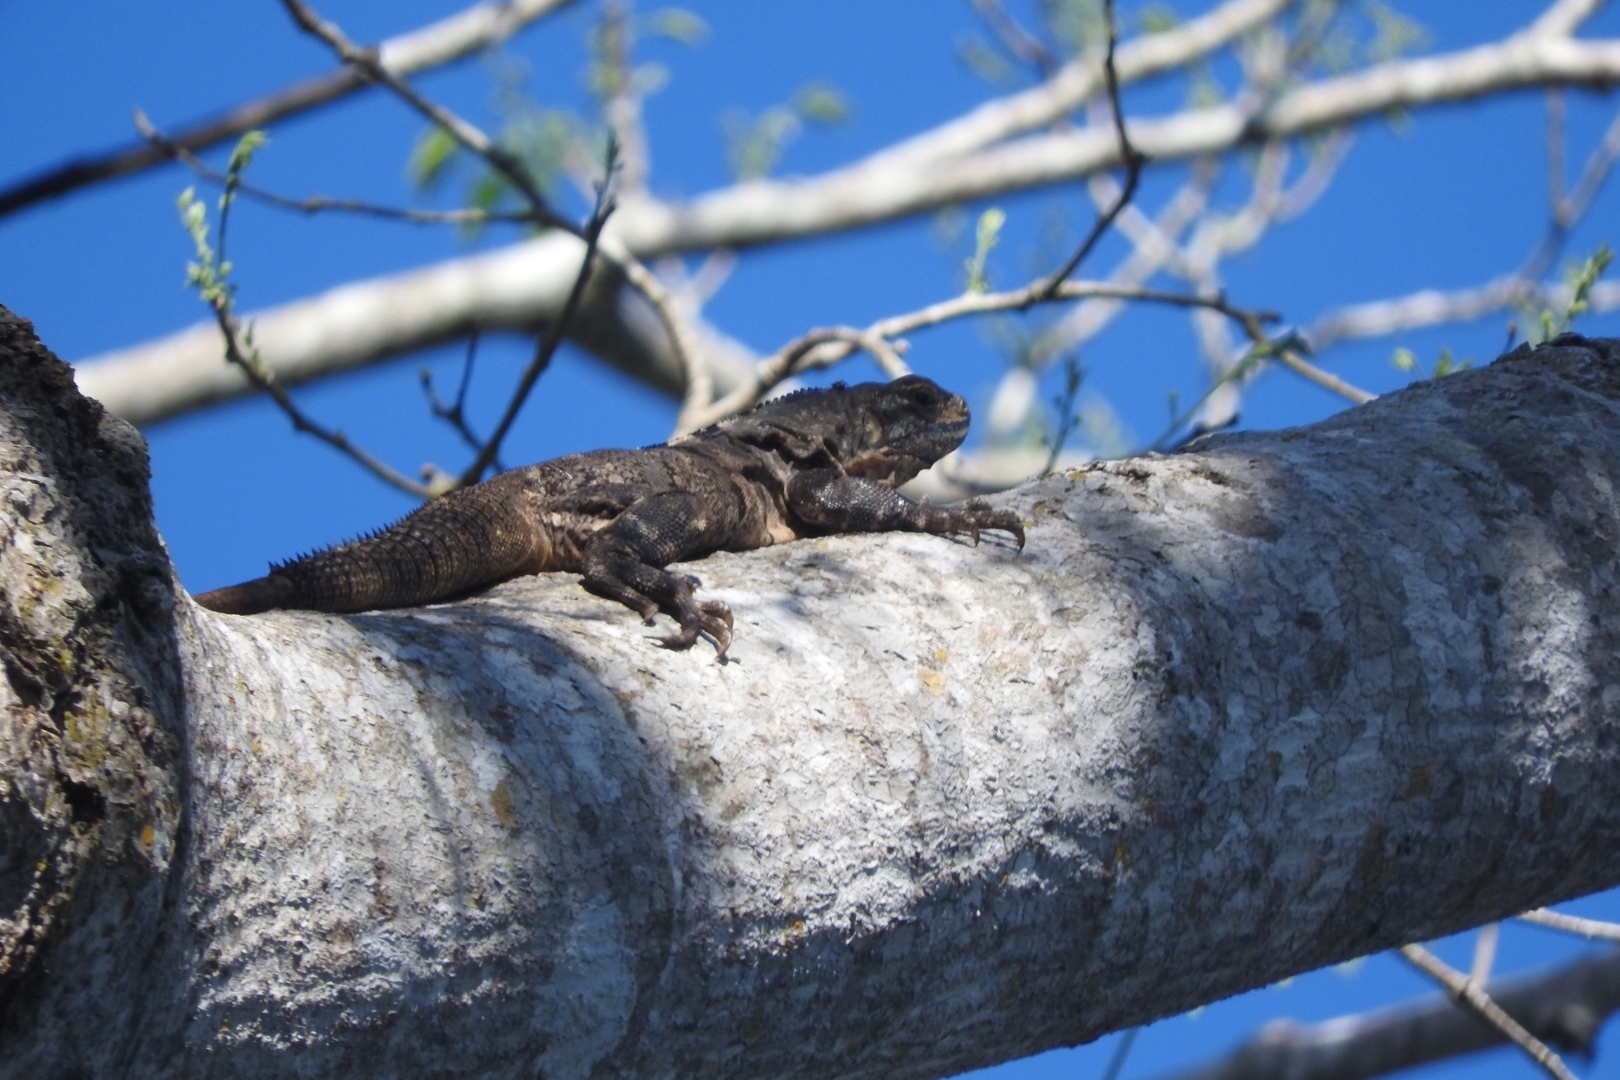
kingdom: Animalia
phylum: Chordata
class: Squamata
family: Iguanidae
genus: Ctenosaura
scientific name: Ctenosaura similis
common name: Black spiny-tailed iguana
